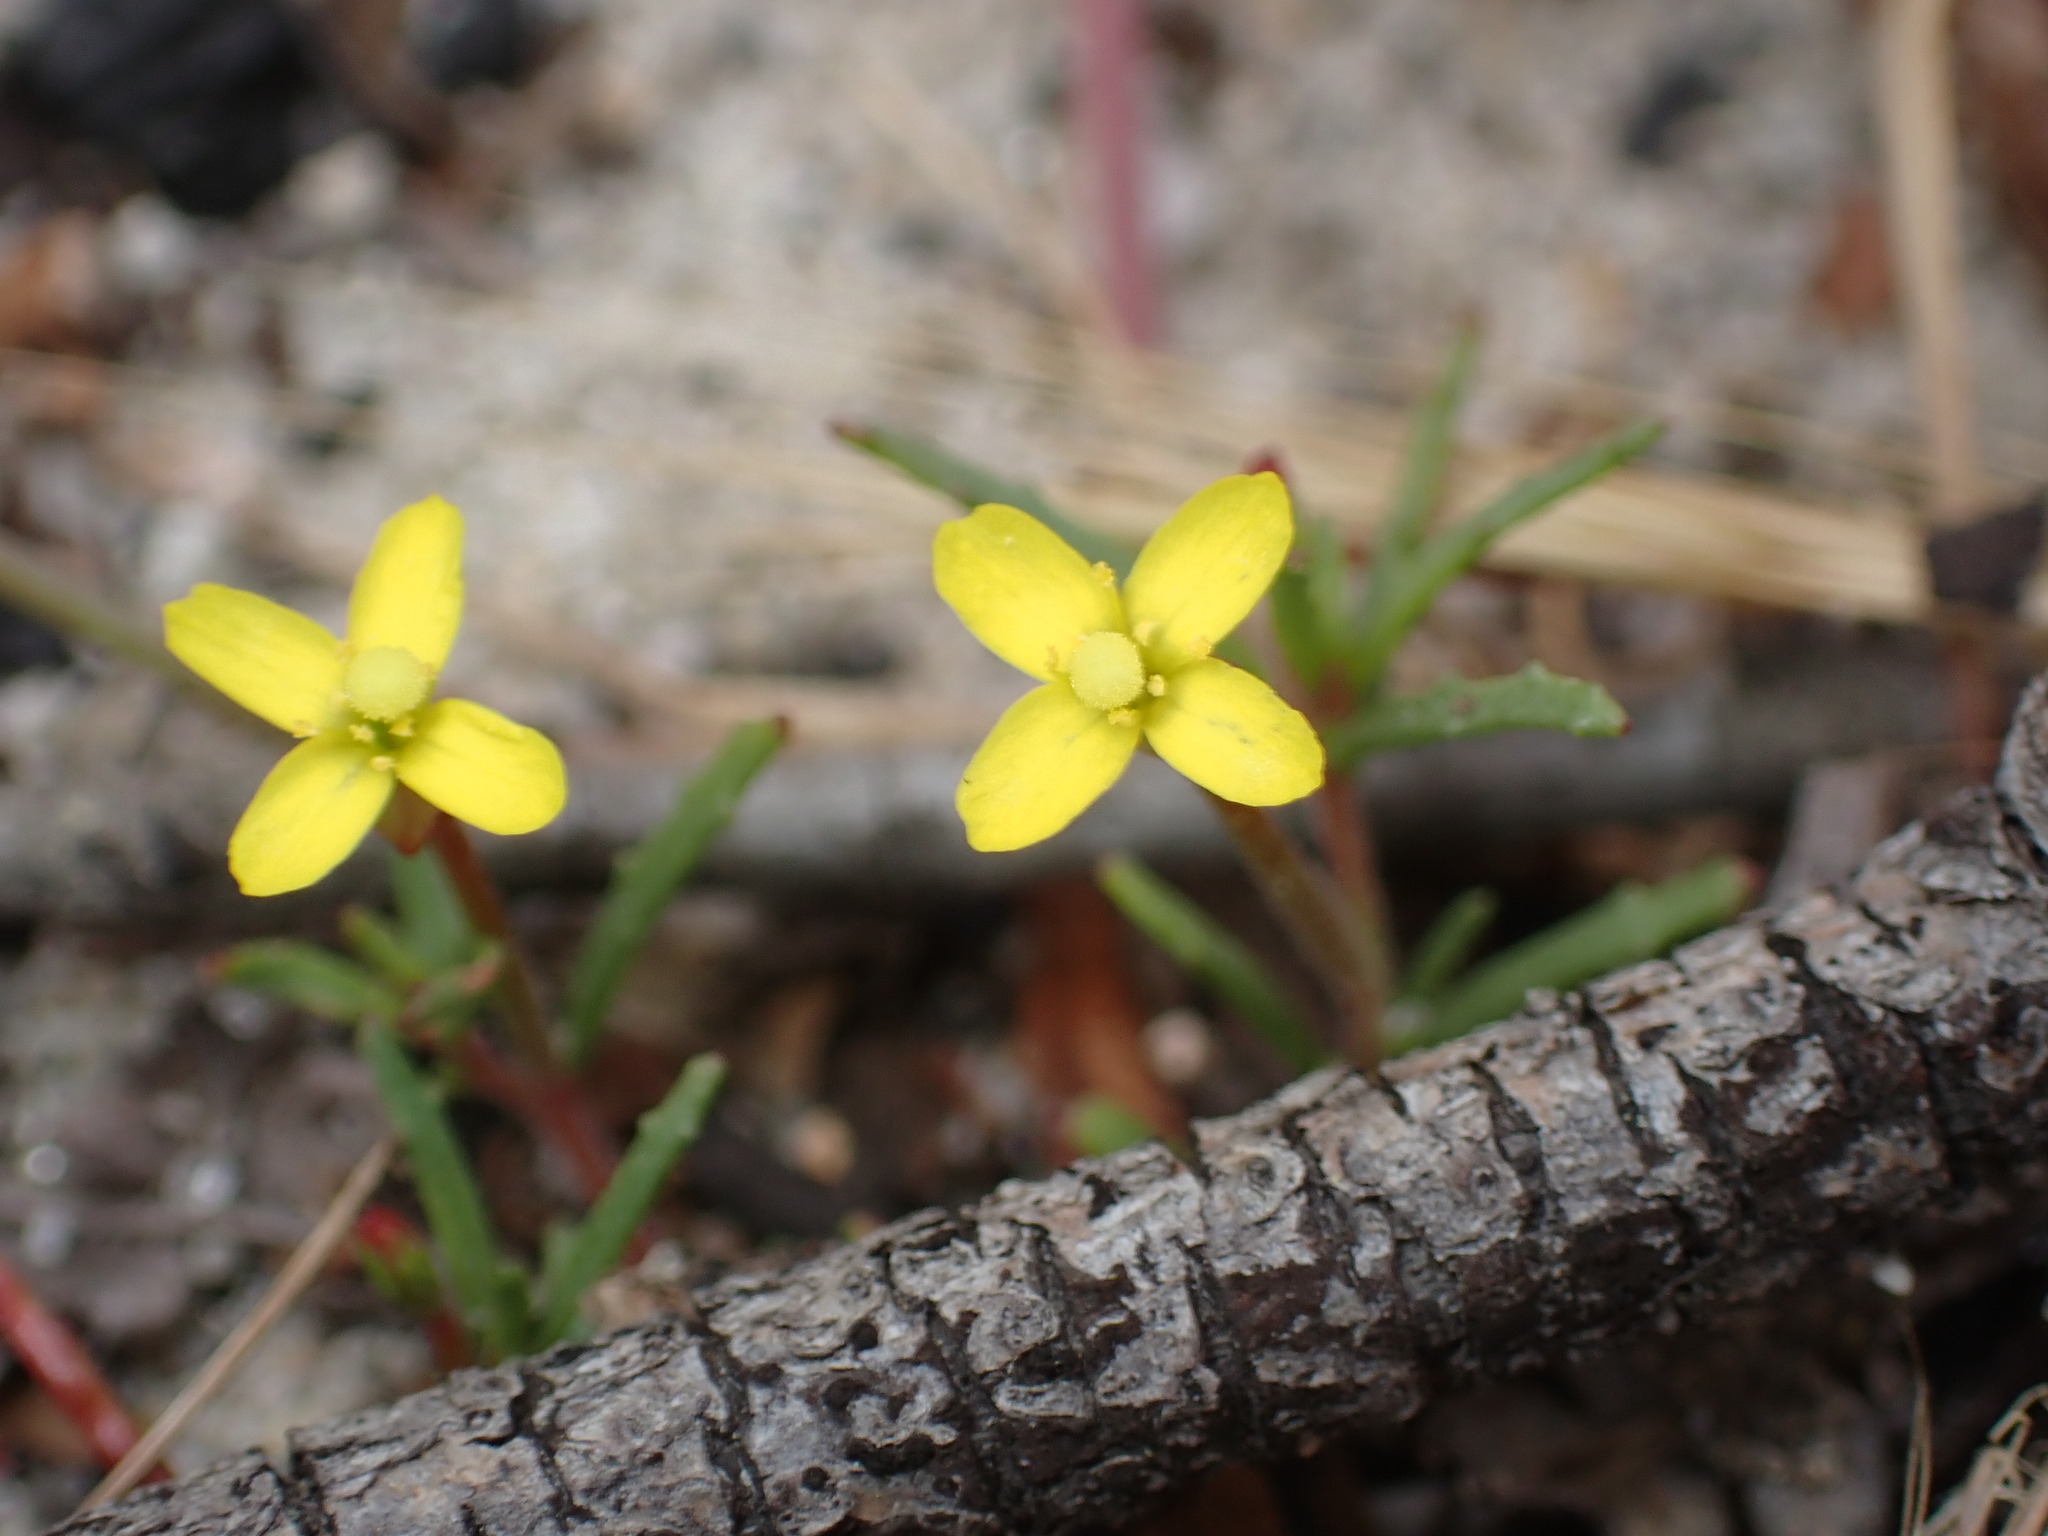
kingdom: Plantae
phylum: Tracheophyta
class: Magnoliopsida
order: Myrtales
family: Onagraceae
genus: Camissonia
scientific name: Camissonia strigulosa
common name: Contorted-primrose
